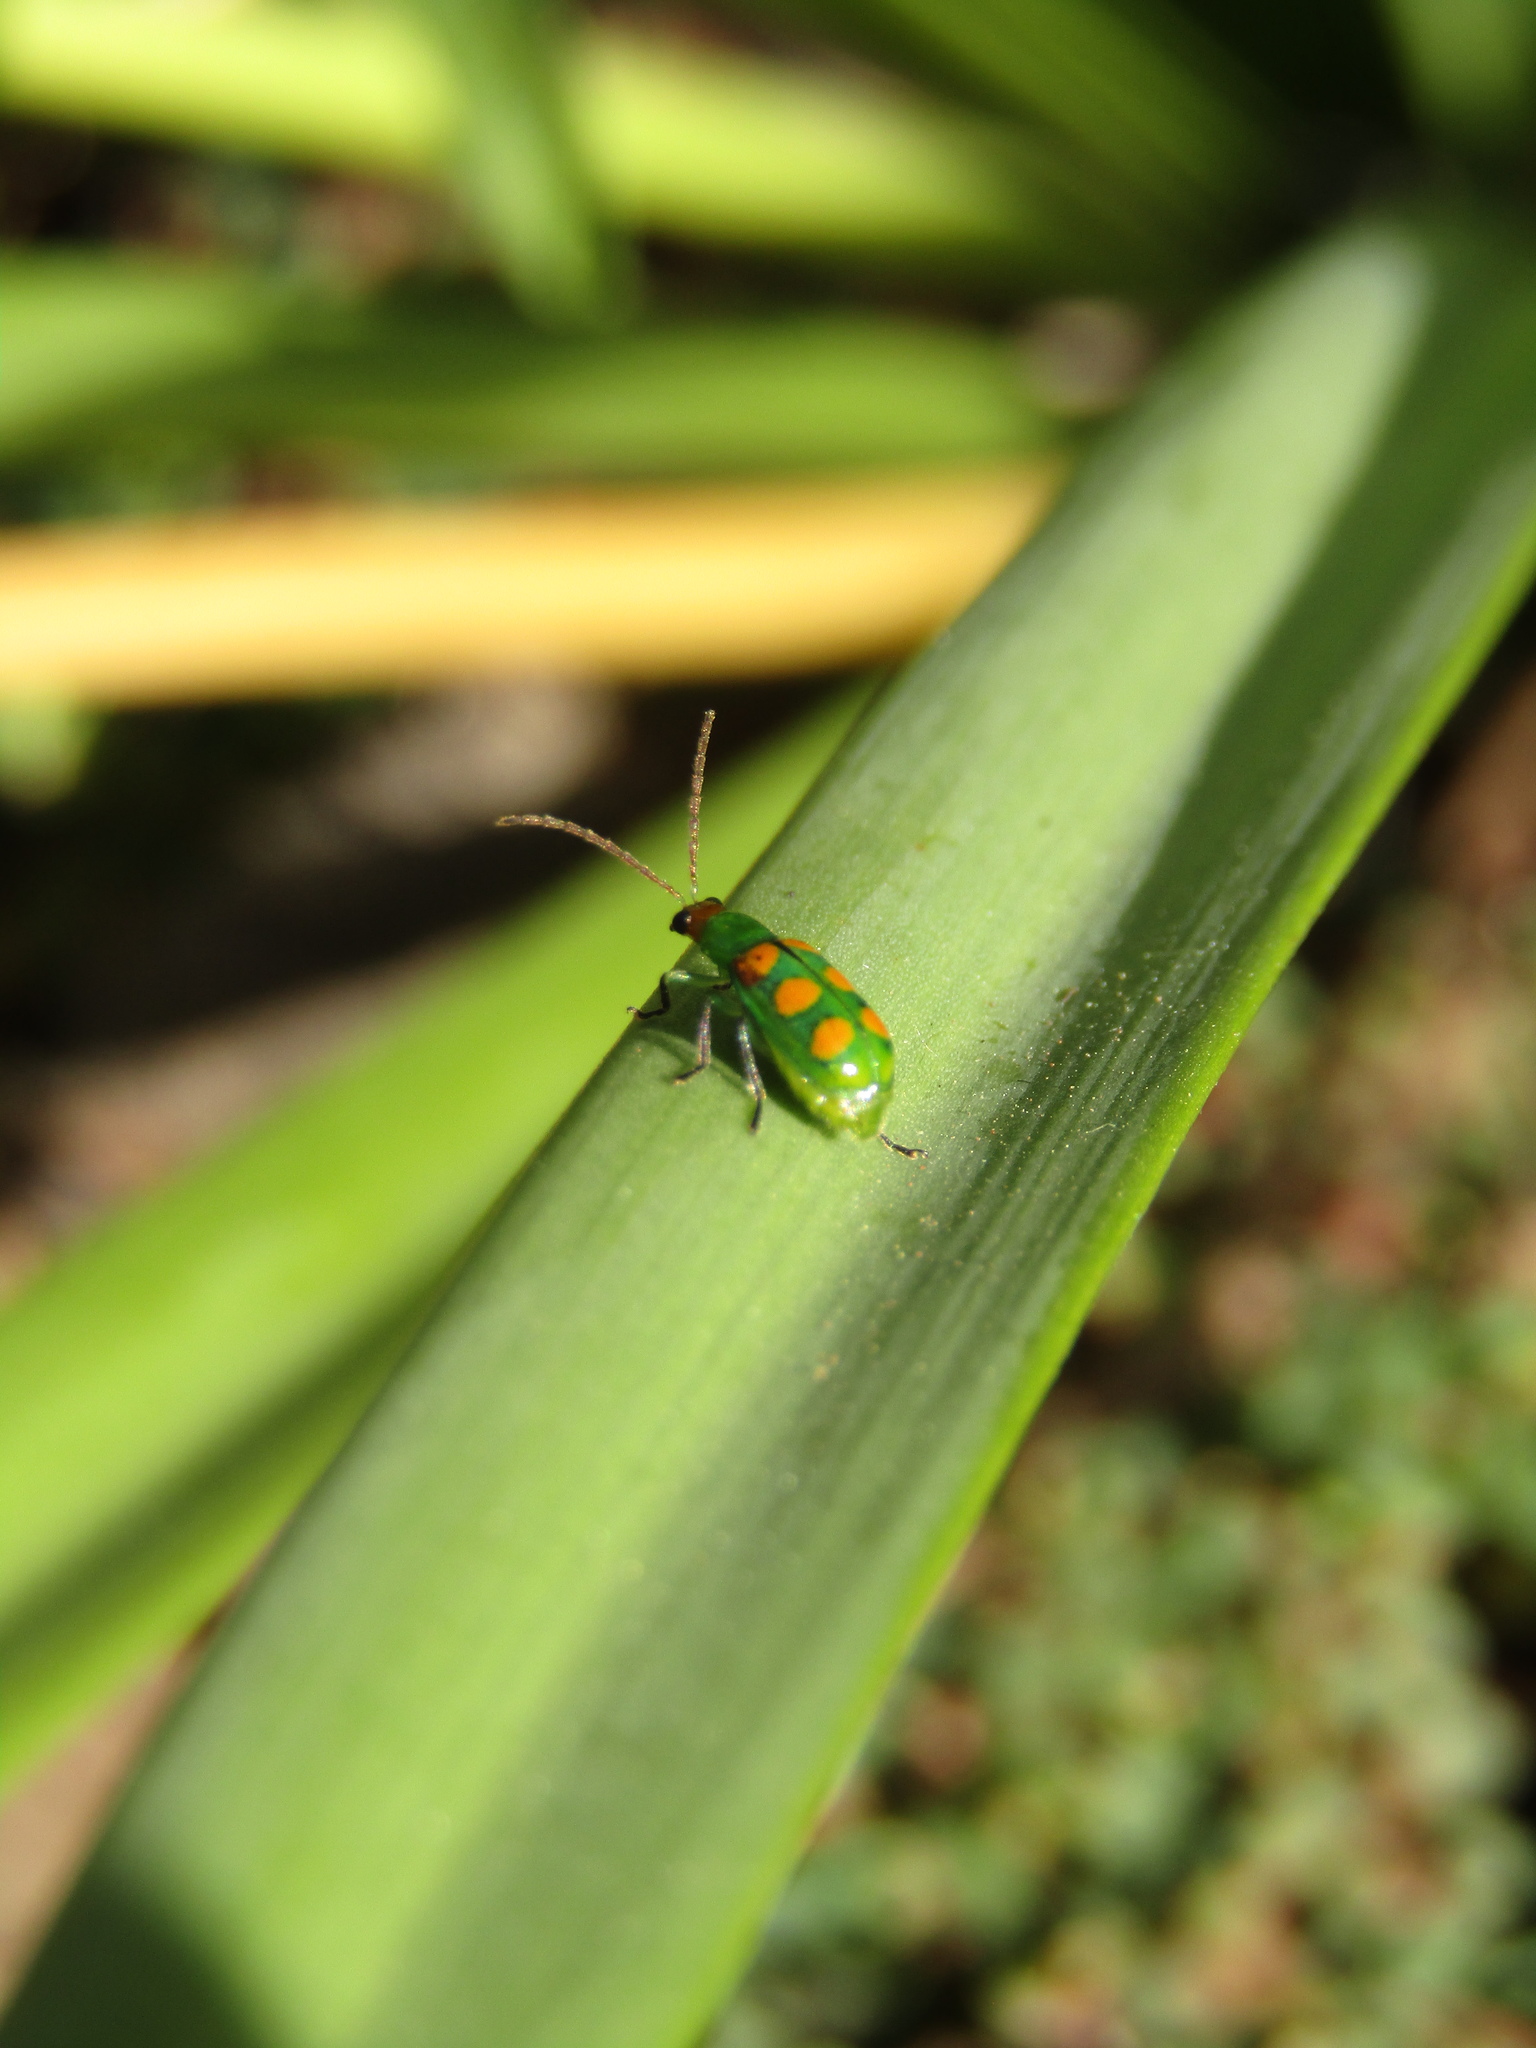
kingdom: Animalia
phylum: Arthropoda
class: Insecta
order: Coleoptera
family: Chrysomelidae
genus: Diabrotica
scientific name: Diabrotica speciosa
